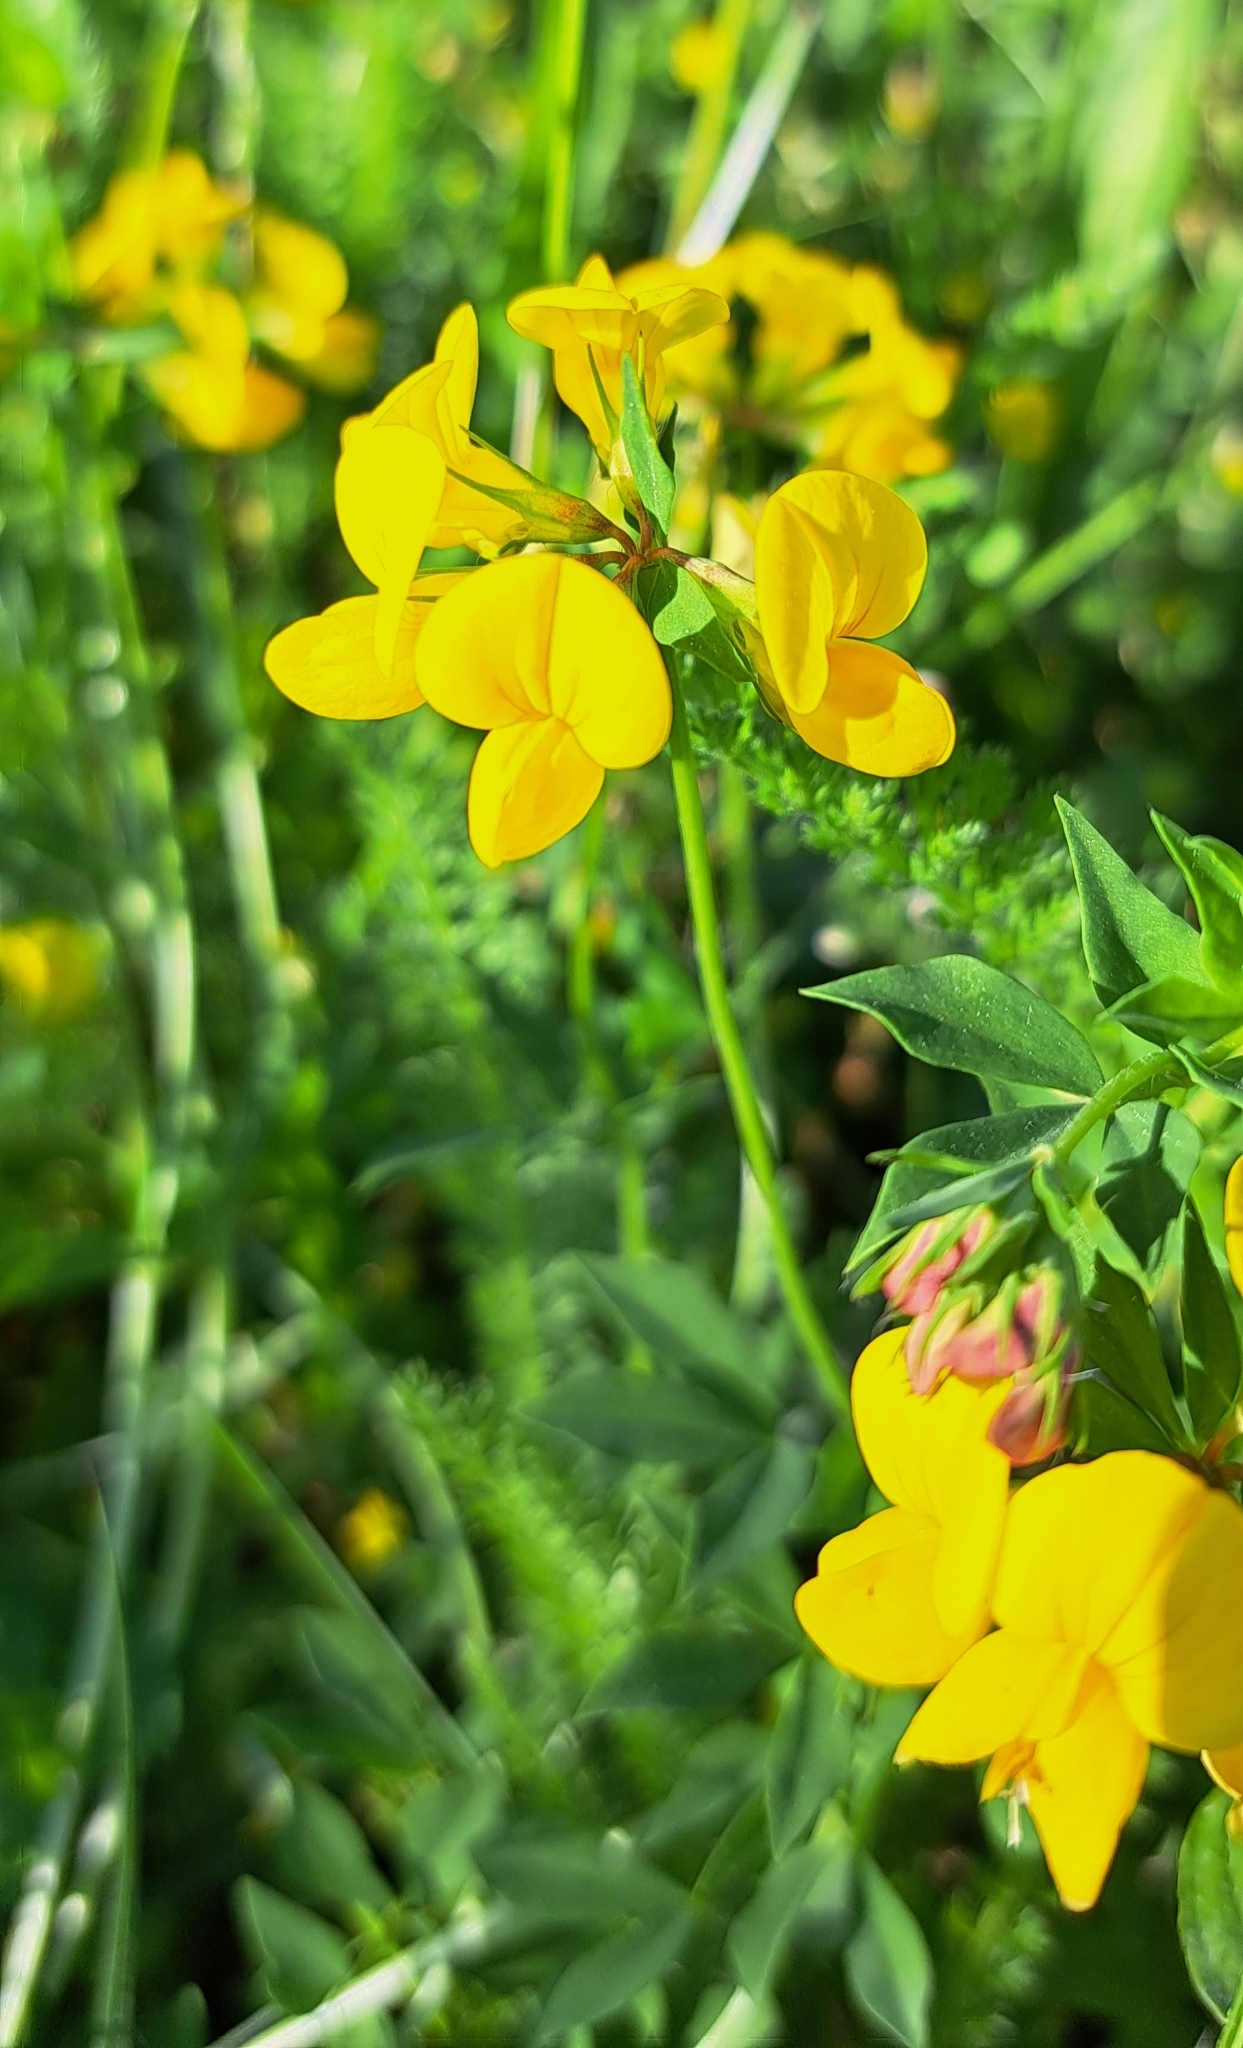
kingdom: Plantae
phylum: Tracheophyta
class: Magnoliopsida
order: Fabales
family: Fabaceae
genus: Lotus
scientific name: Lotus corniculatus
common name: Common bird's-foot-trefoil
